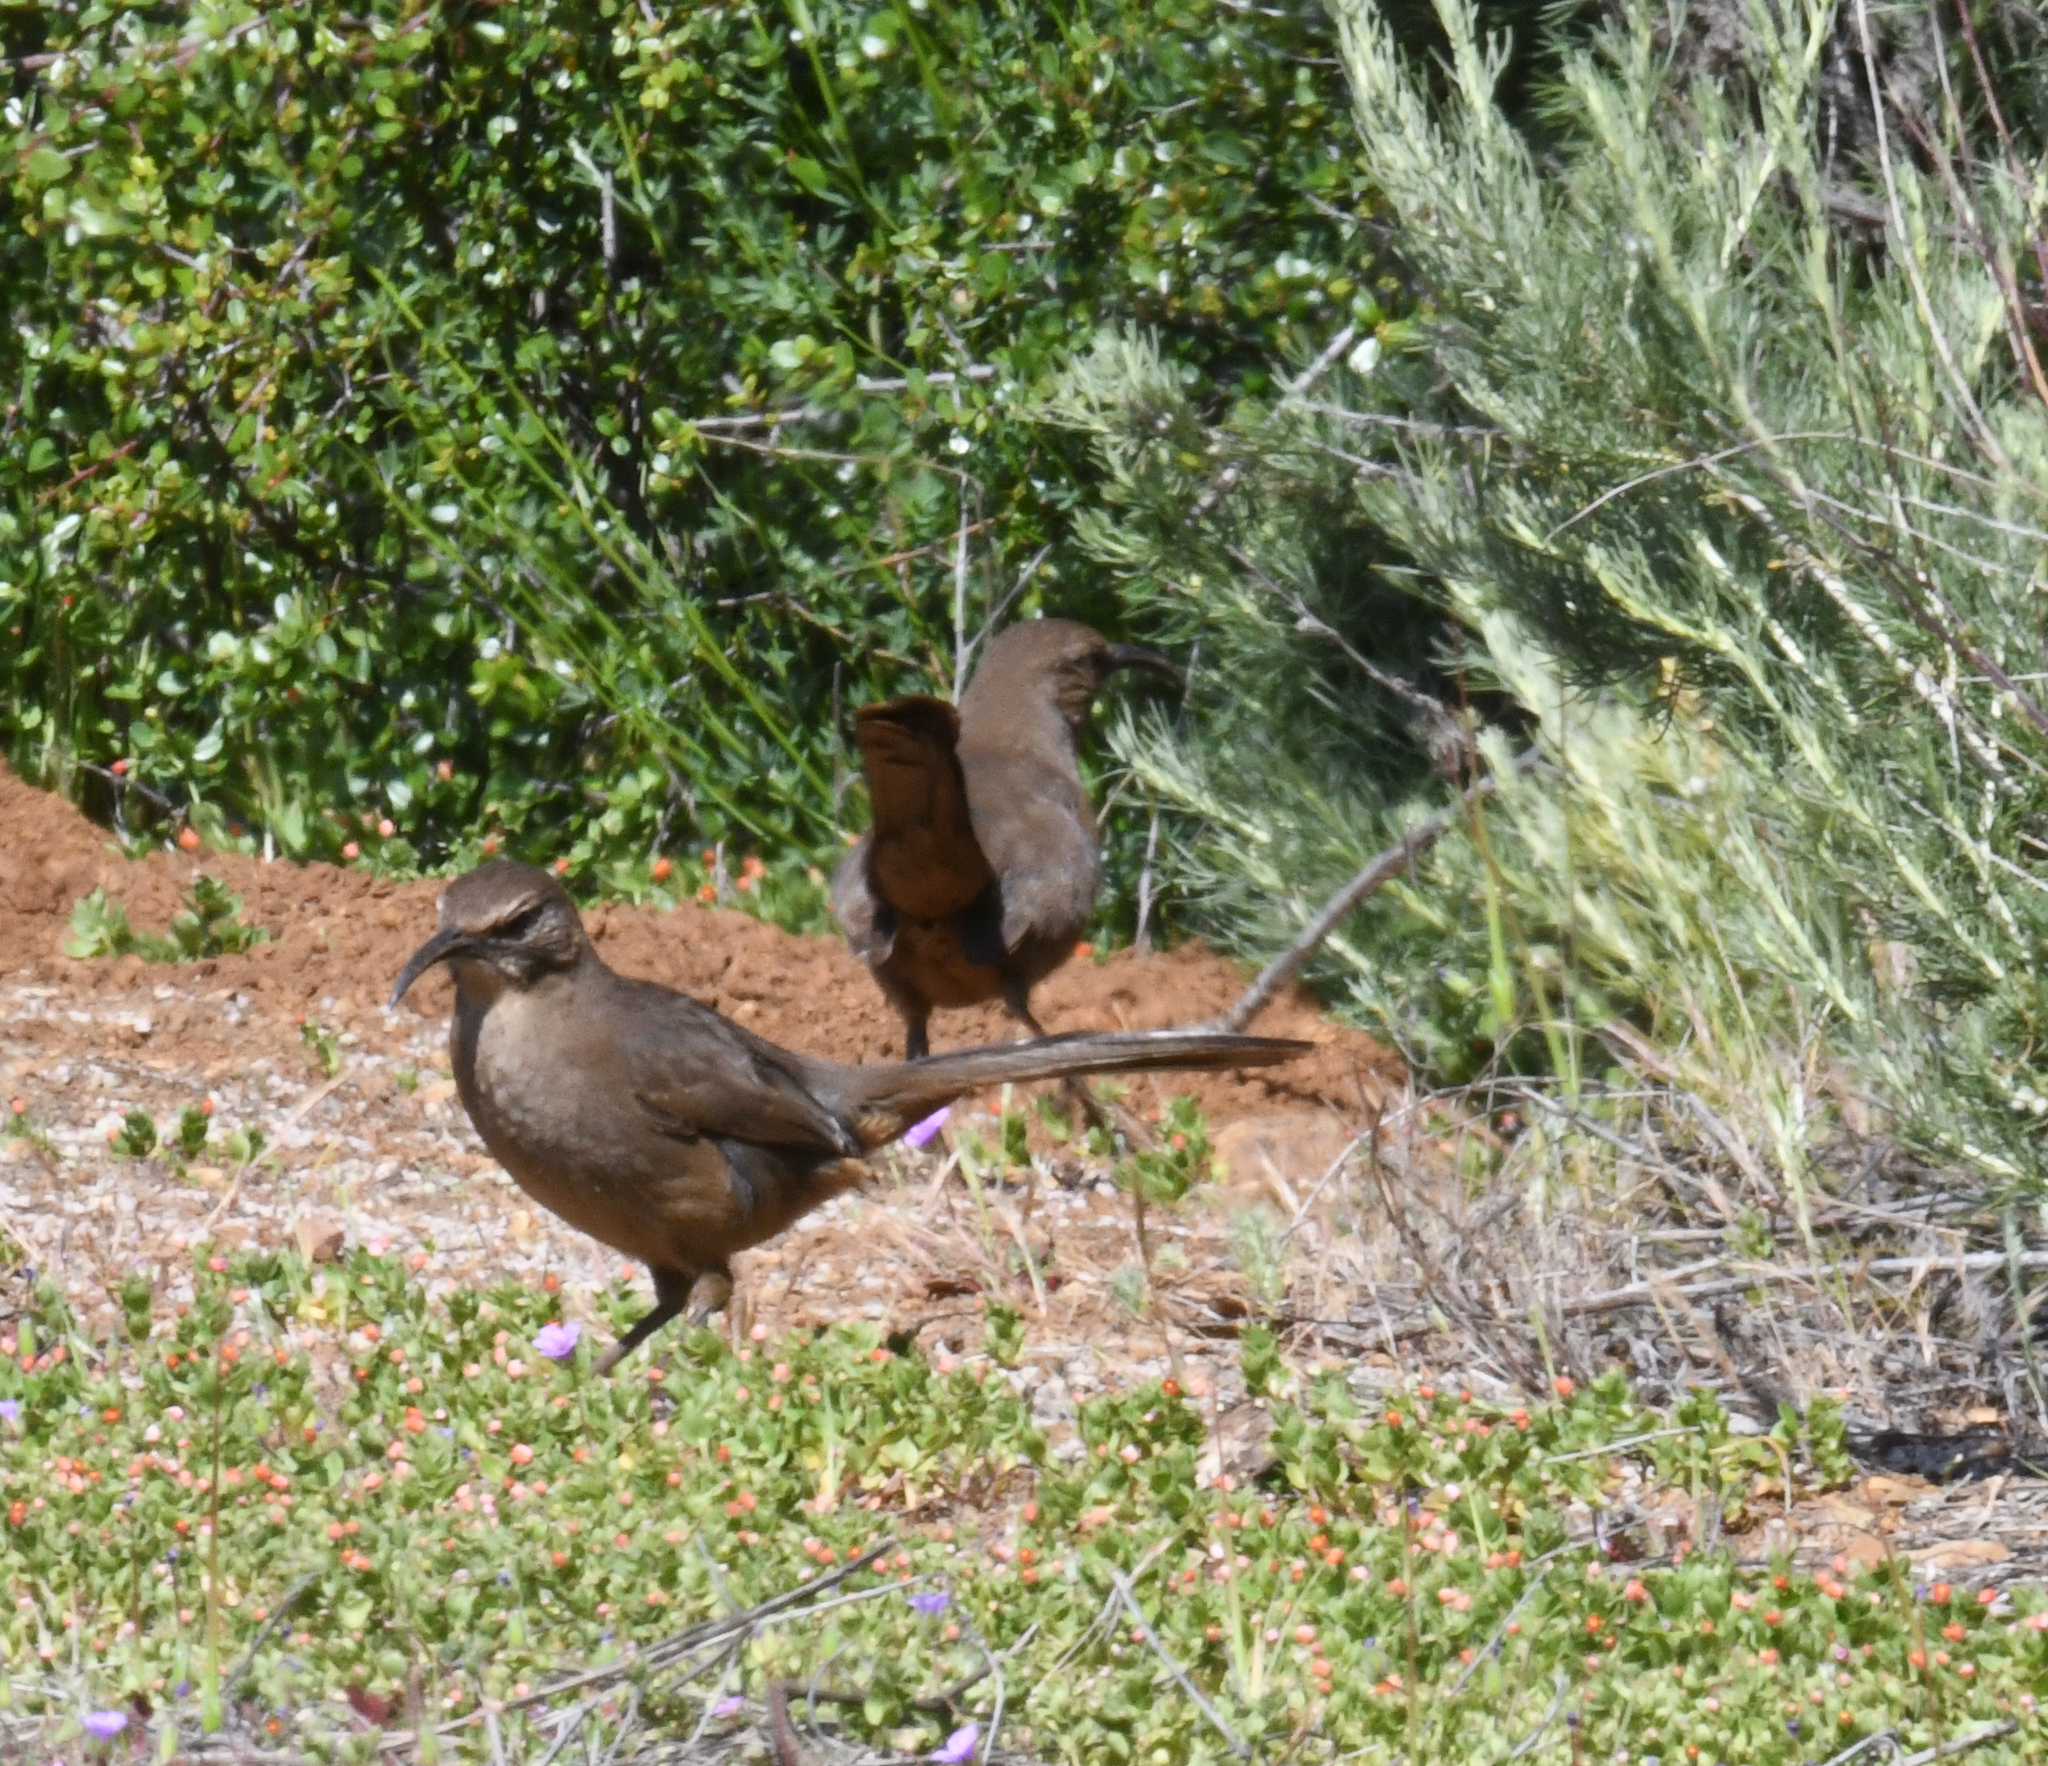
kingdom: Animalia
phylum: Chordata
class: Aves
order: Passeriformes
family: Mimidae
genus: Toxostoma
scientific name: Toxostoma redivivum
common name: California thrasher
